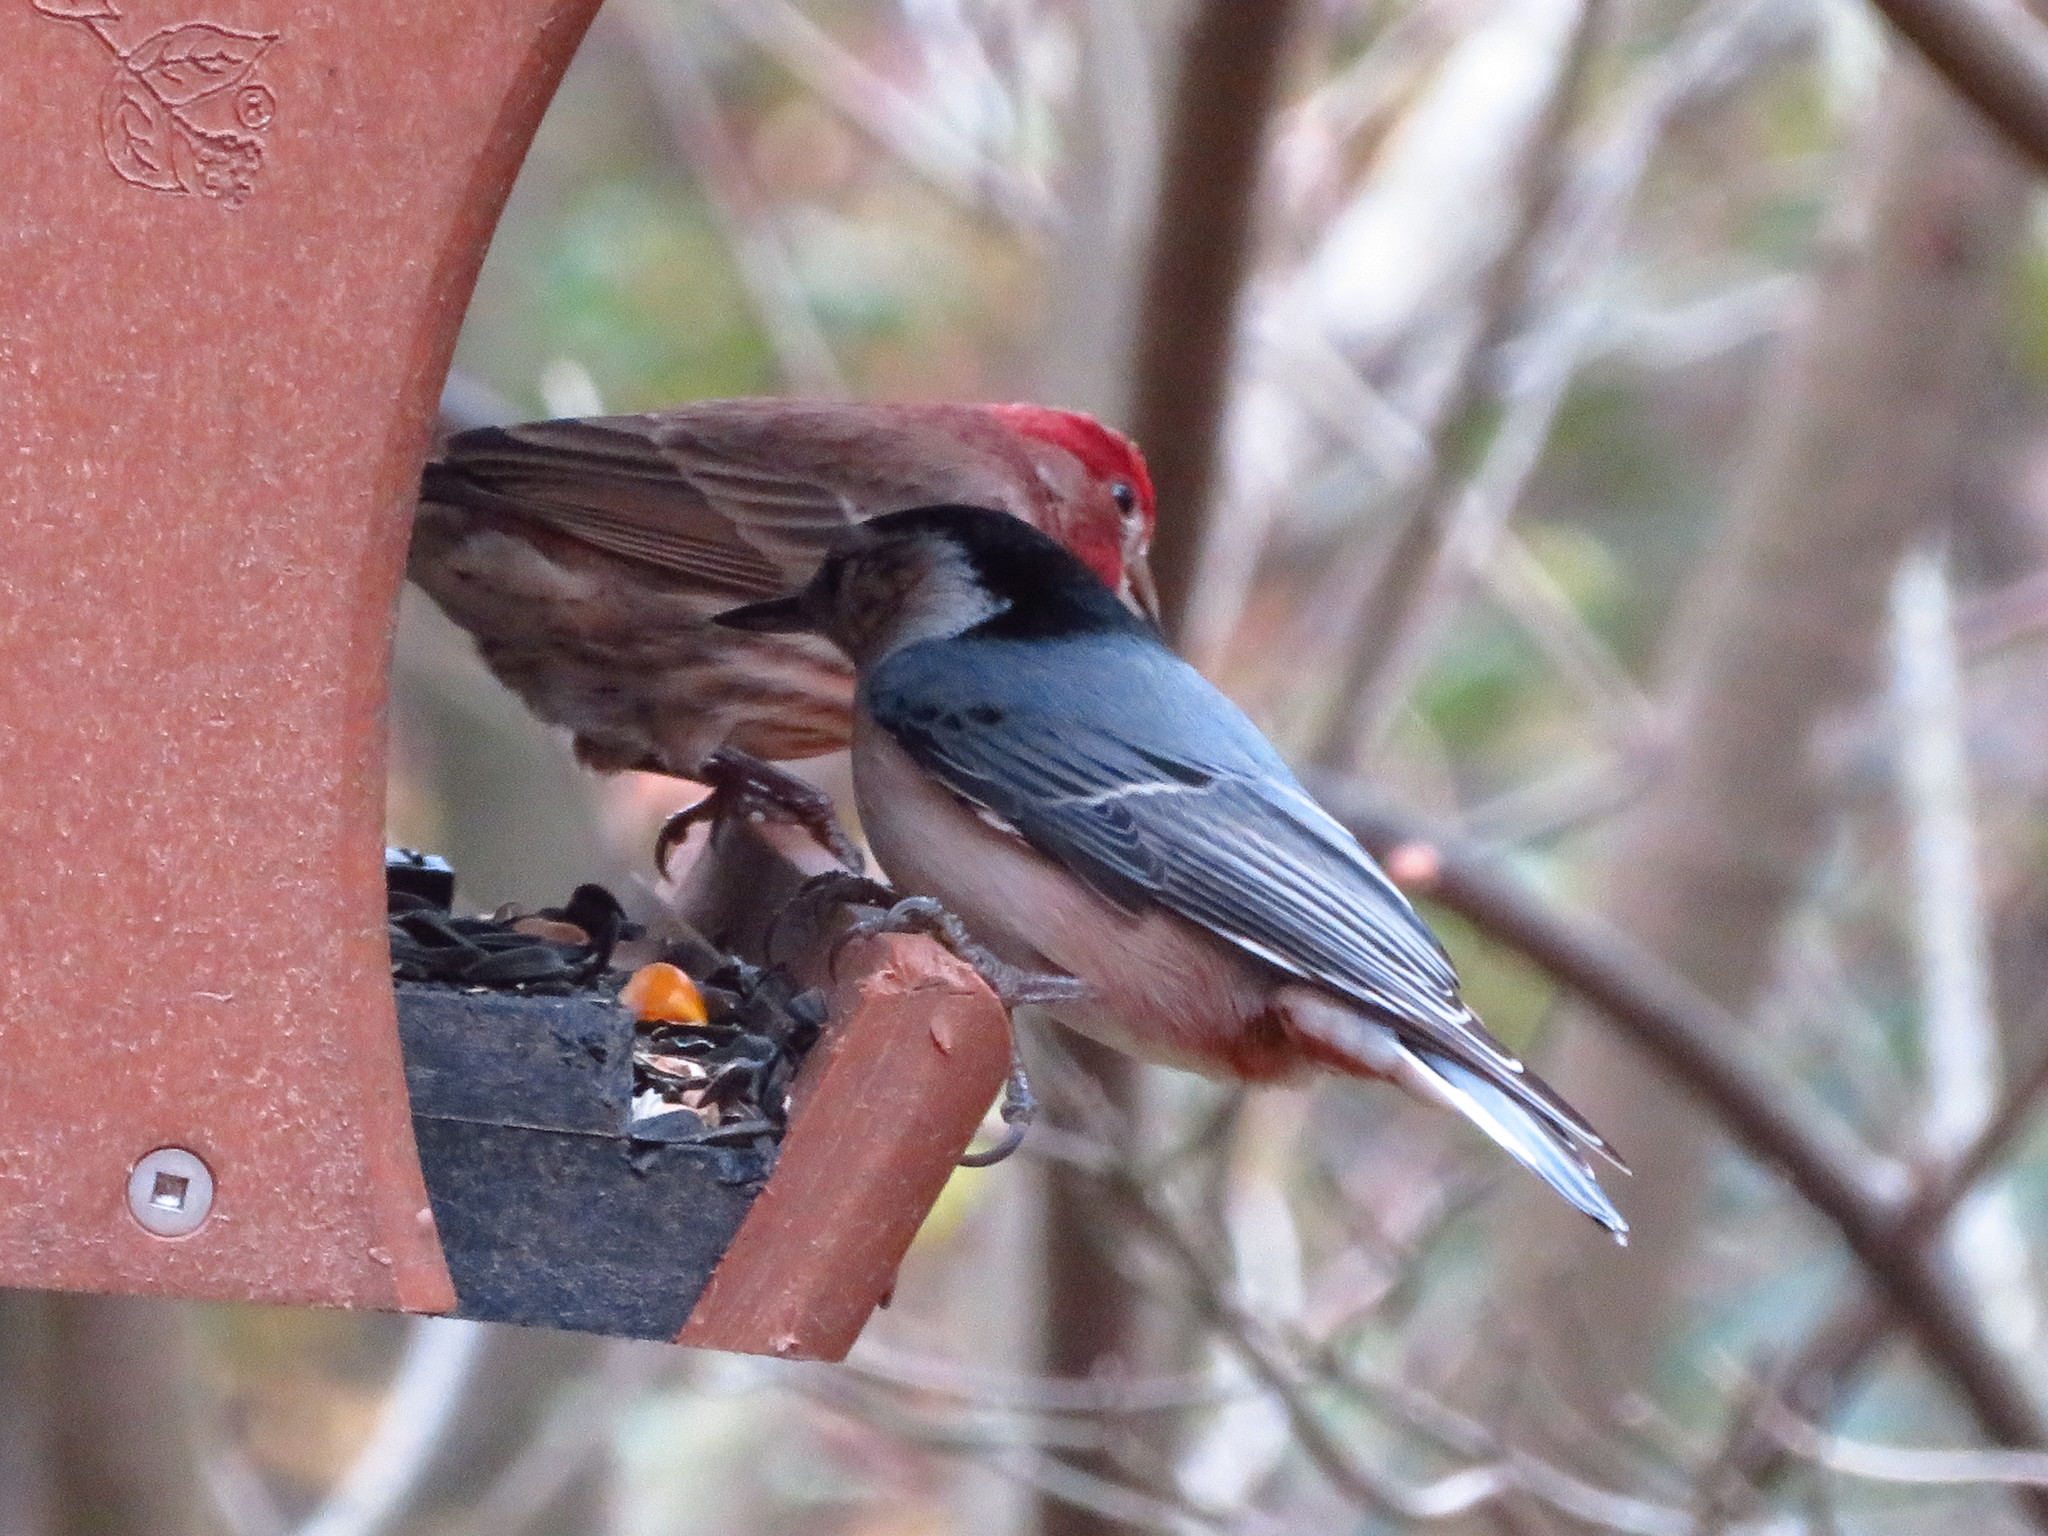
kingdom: Animalia
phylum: Chordata
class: Aves
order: Passeriformes
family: Sittidae
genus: Sitta
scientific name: Sitta carolinensis
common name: White-breasted nuthatch
